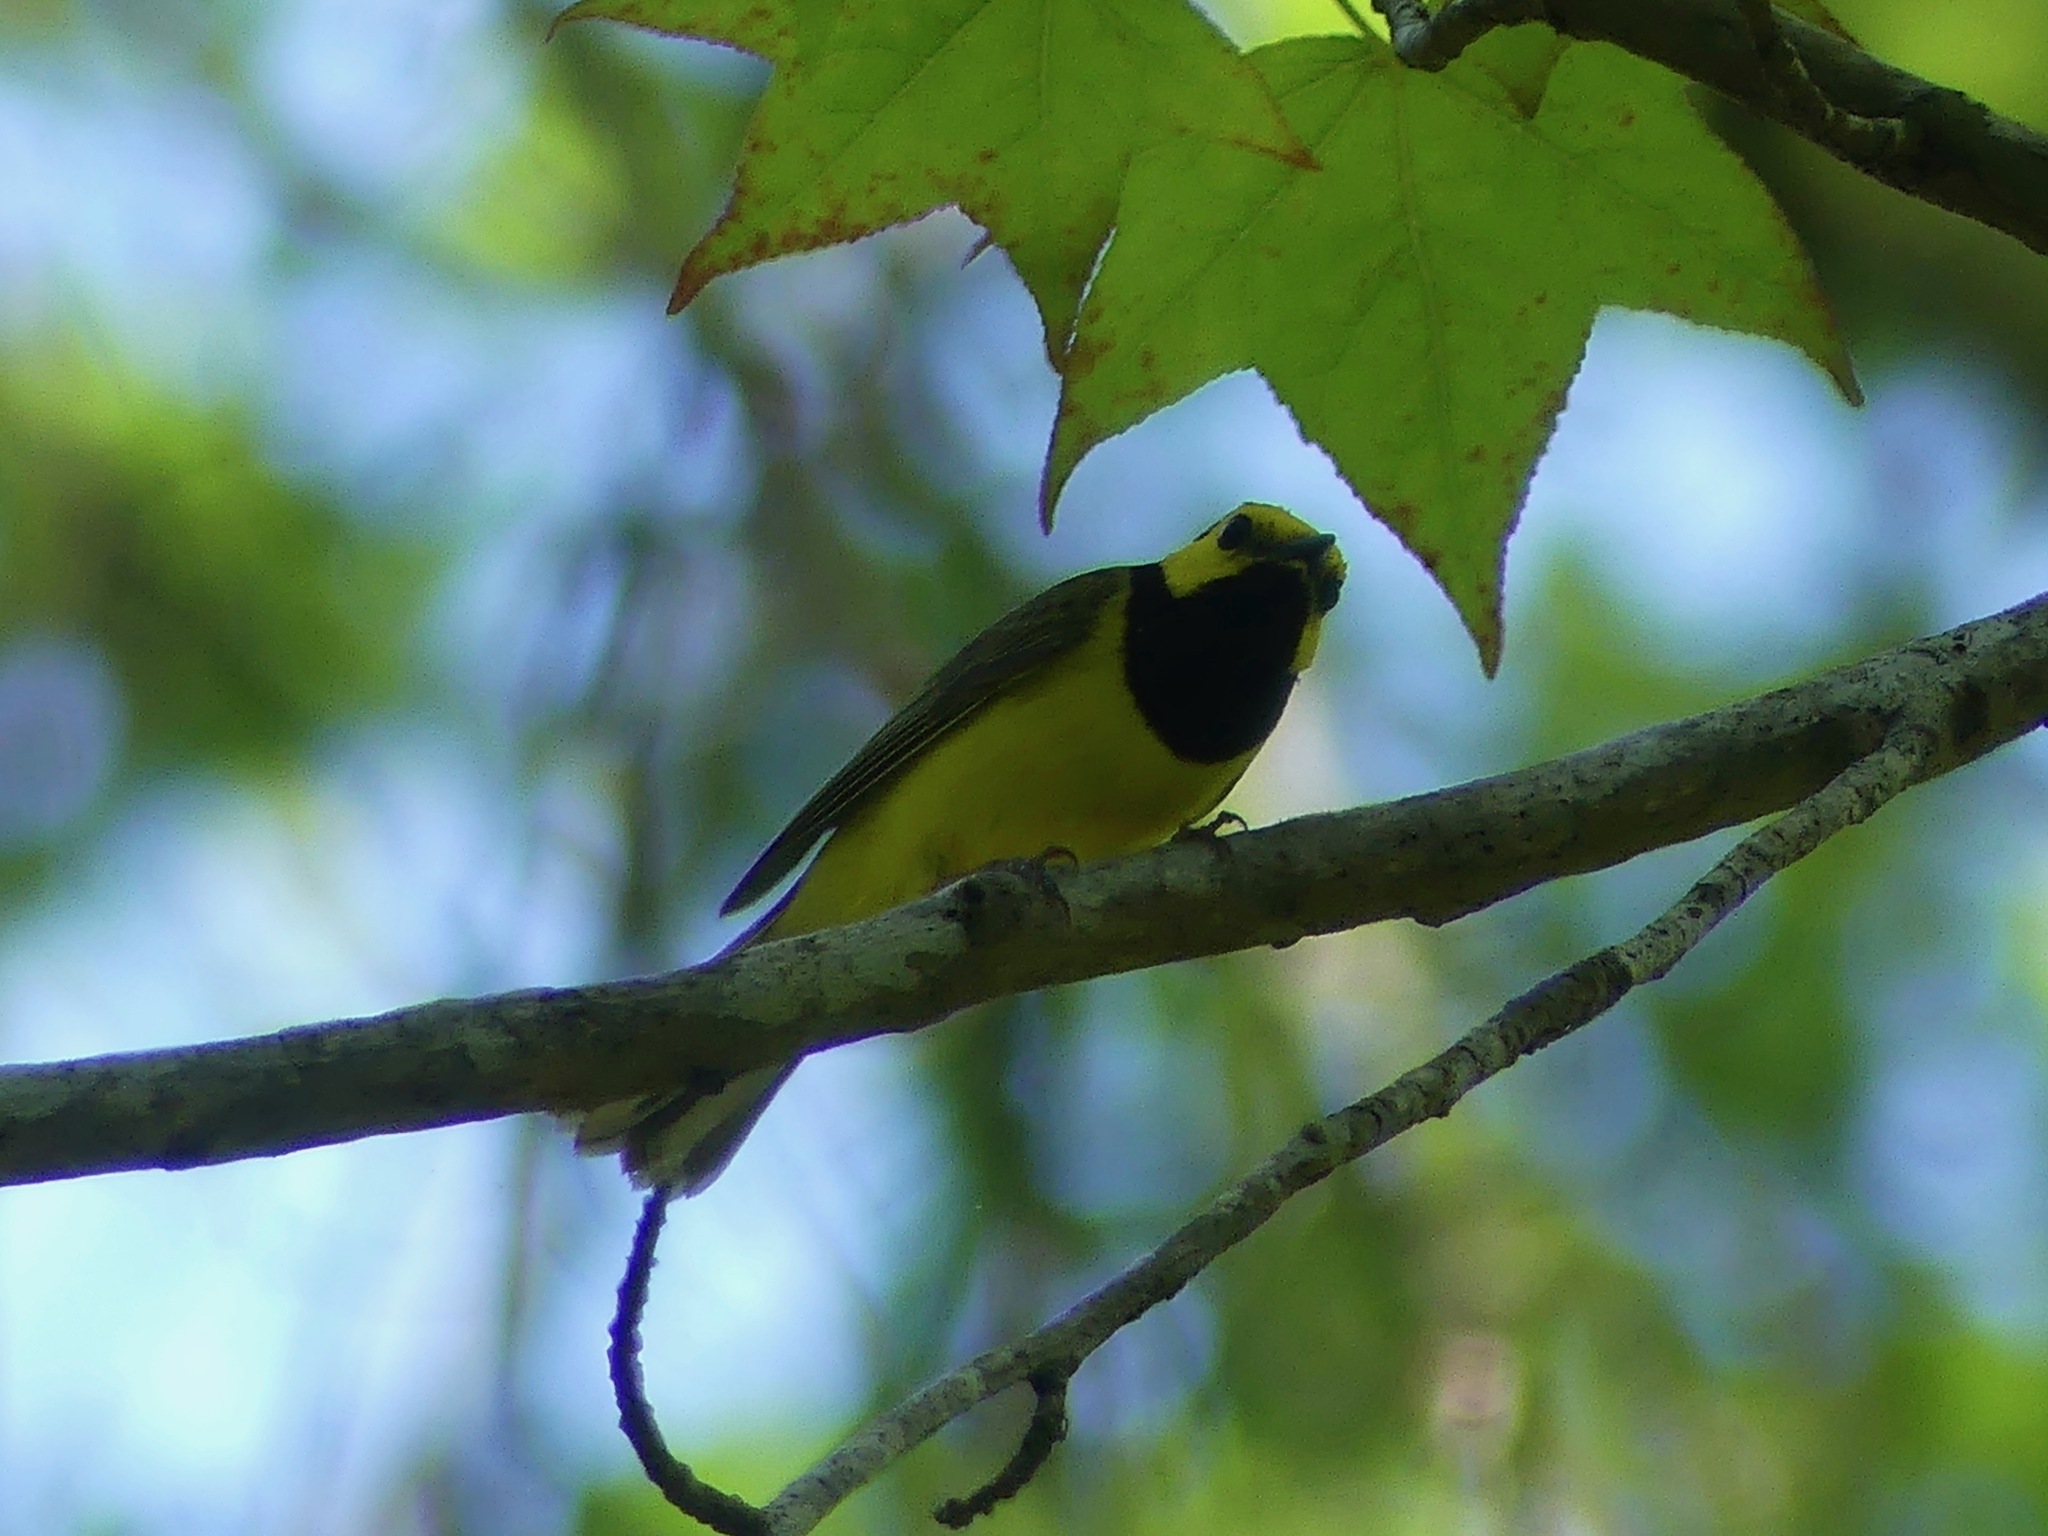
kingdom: Animalia
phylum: Chordata
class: Aves
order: Passeriformes
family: Parulidae
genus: Setophaga
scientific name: Setophaga citrina
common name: Hooded warbler
